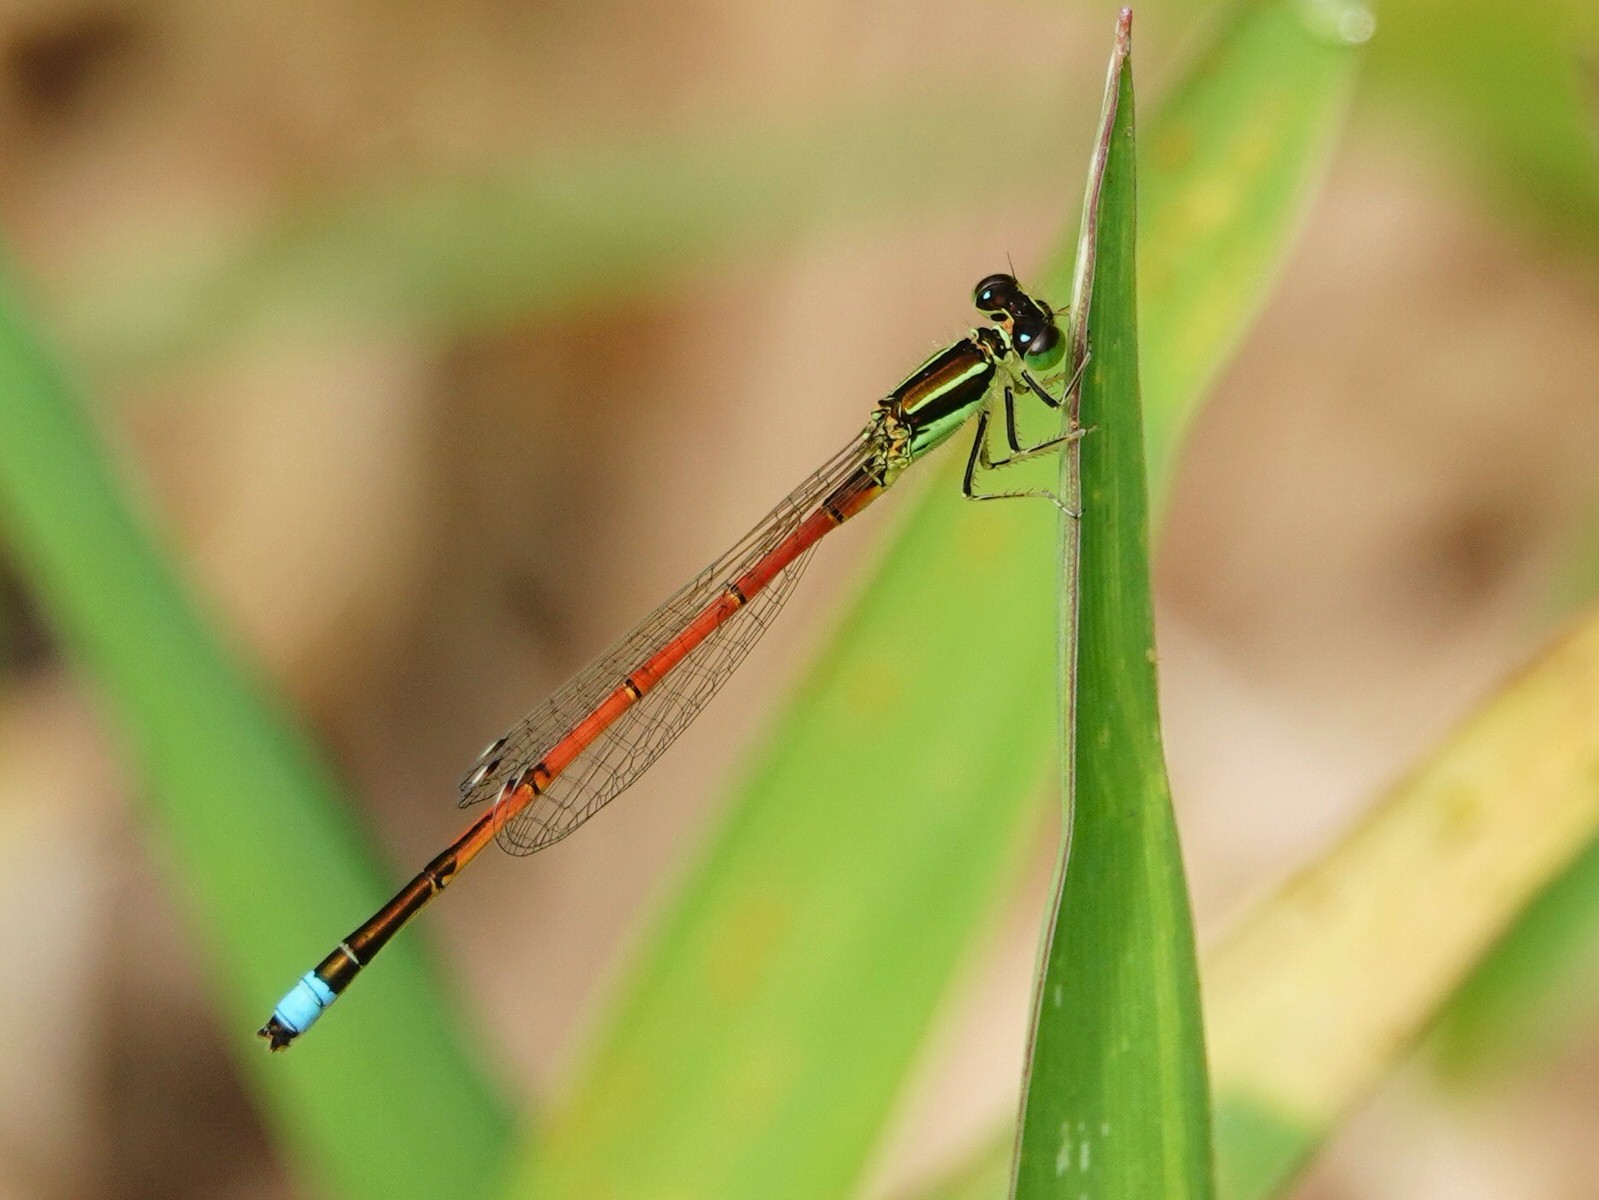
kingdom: Animalia
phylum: Arthropoda
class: Insecta
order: Odonata
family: Coenagrionidae
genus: Ischnura
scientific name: Ischnura aurora
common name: Gossamer damselfly
